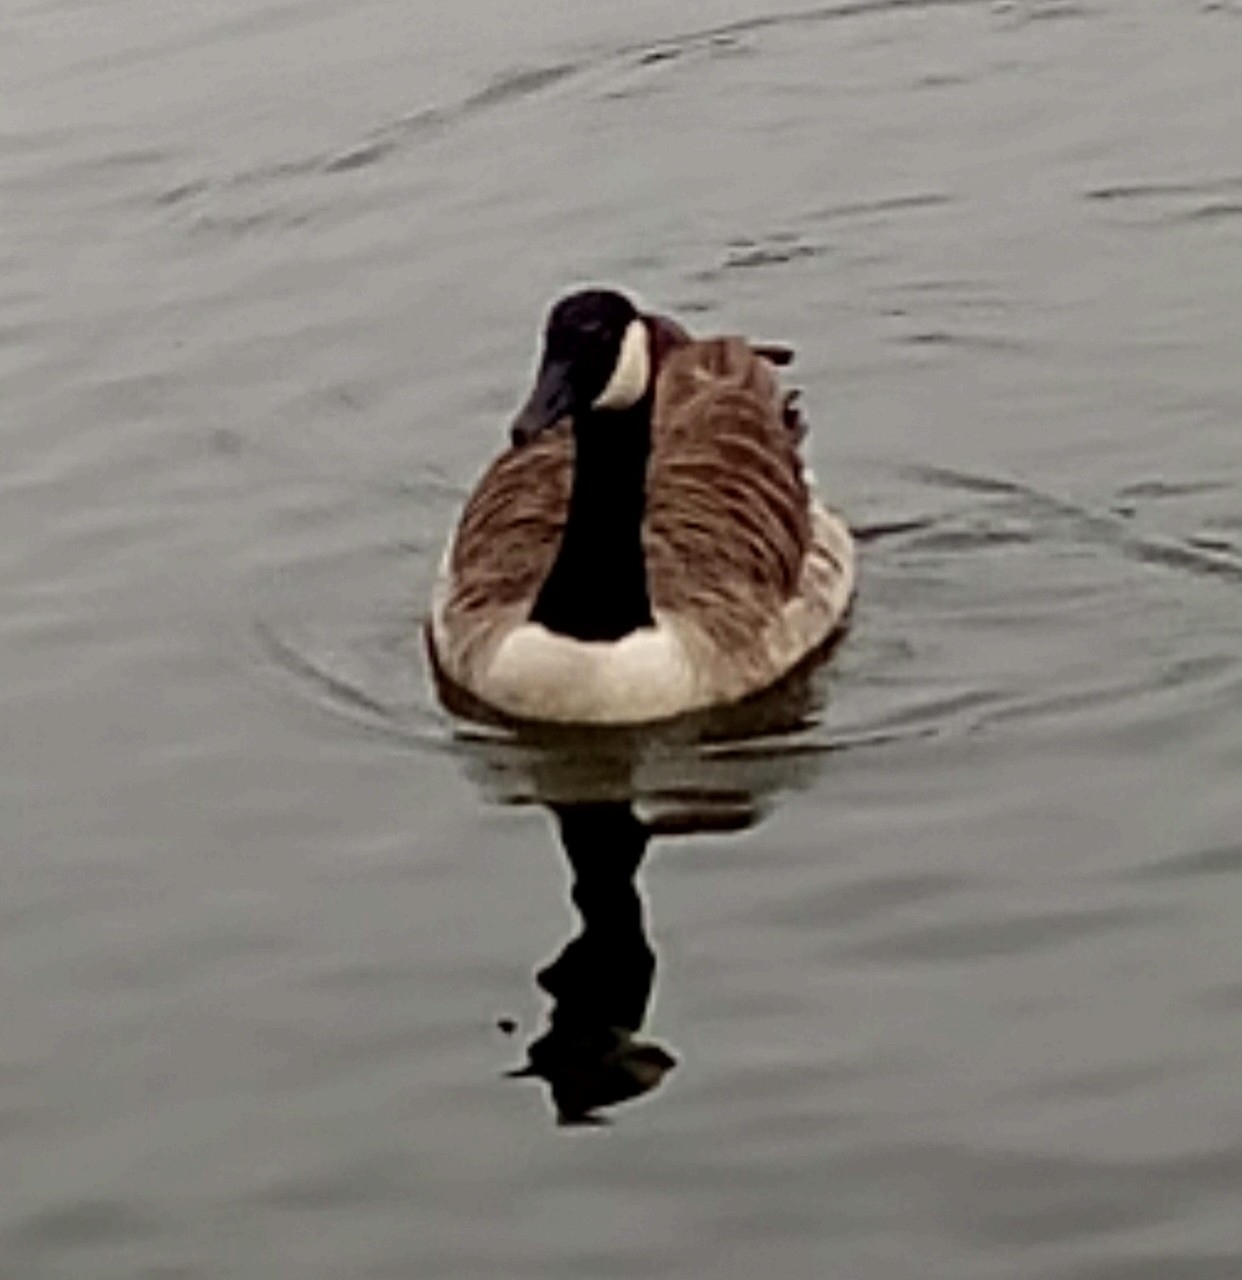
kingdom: Animalia
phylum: Chordata
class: Aves
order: Anseriformes
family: Anatidae
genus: Branta
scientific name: Branta canadensis
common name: Canada goose
